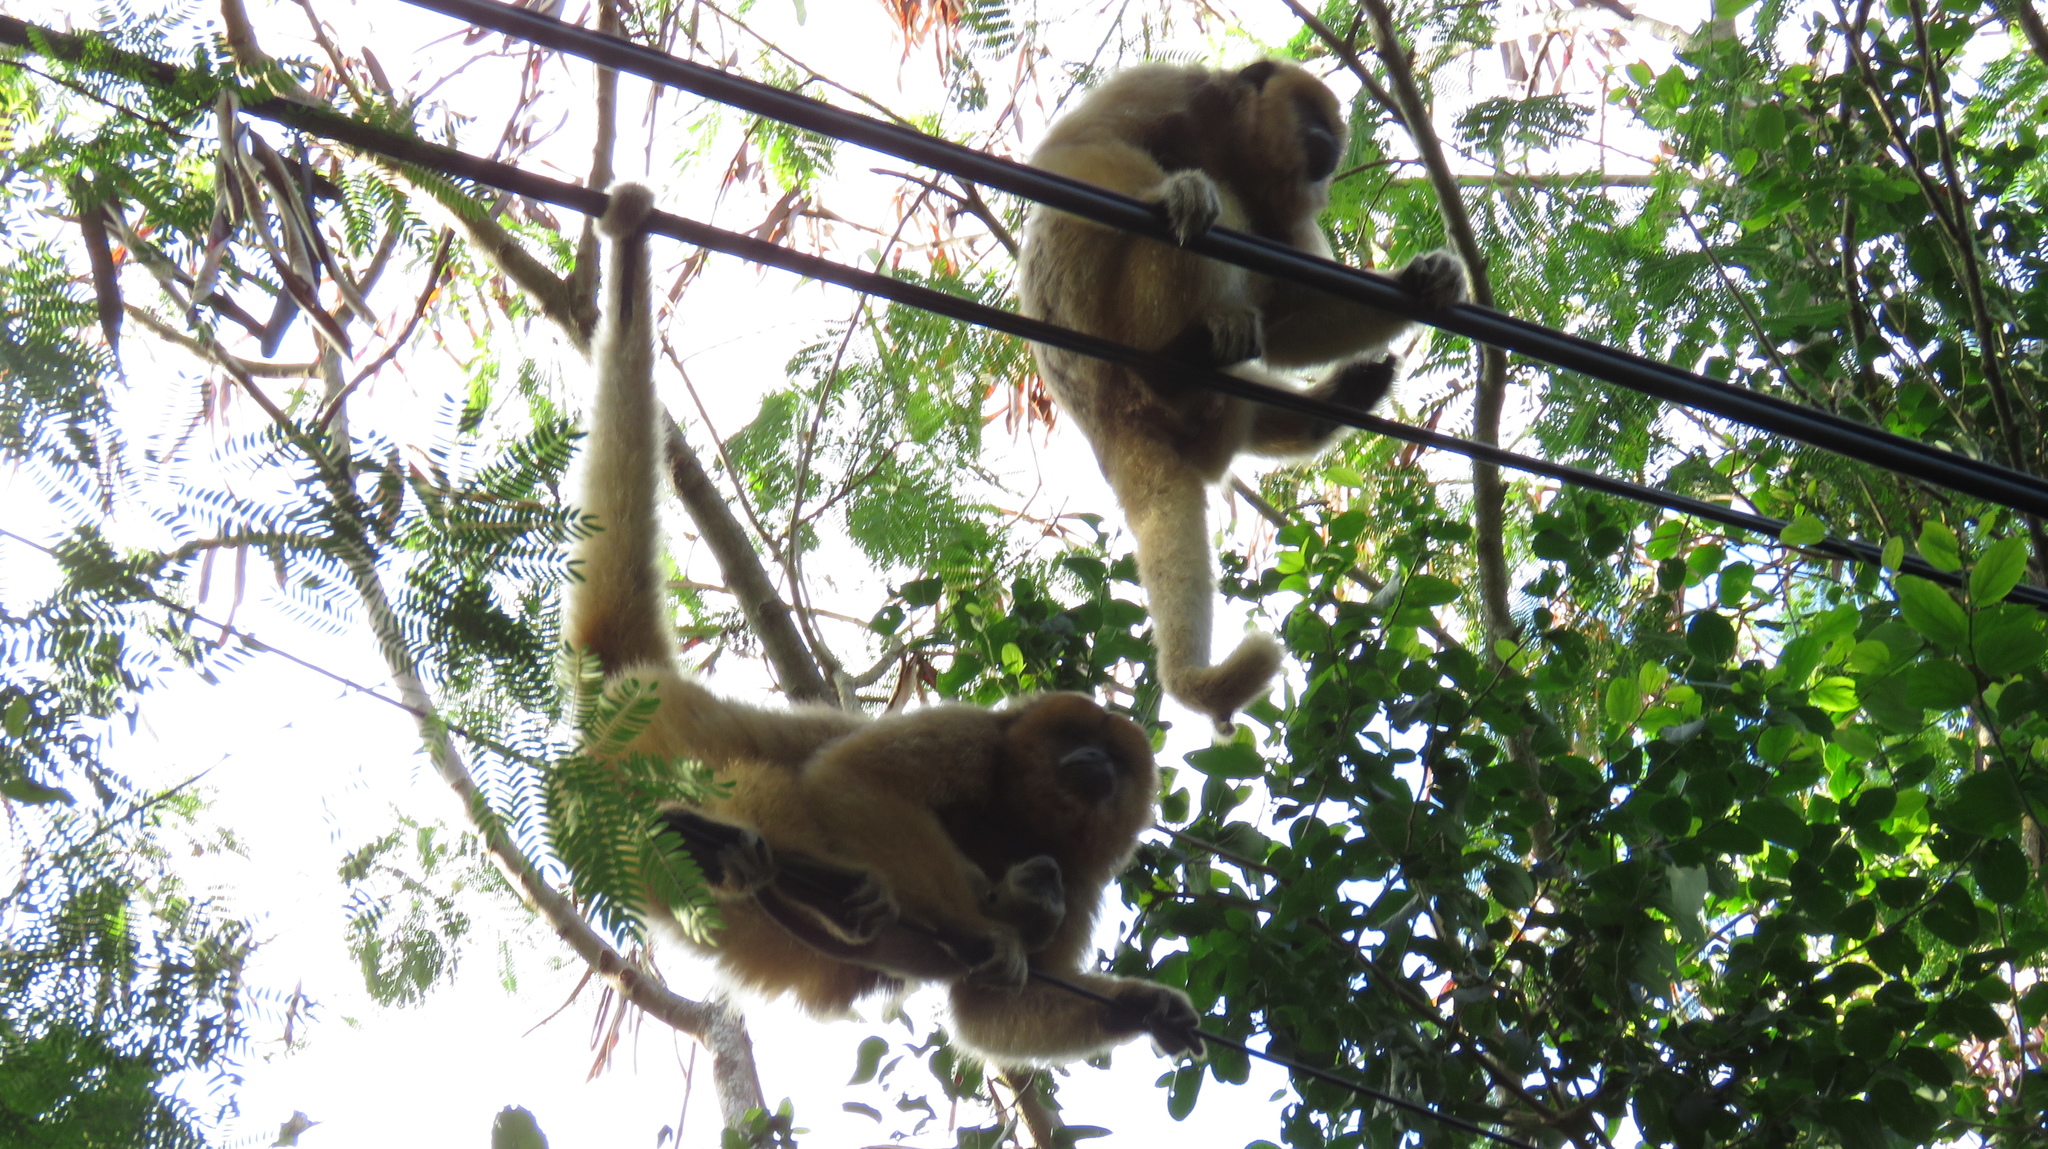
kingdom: Animalia
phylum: Chordata
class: Mammalia
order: Primates
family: Atelidae
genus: Alouatta
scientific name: Alouatta caraya
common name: Black howler
